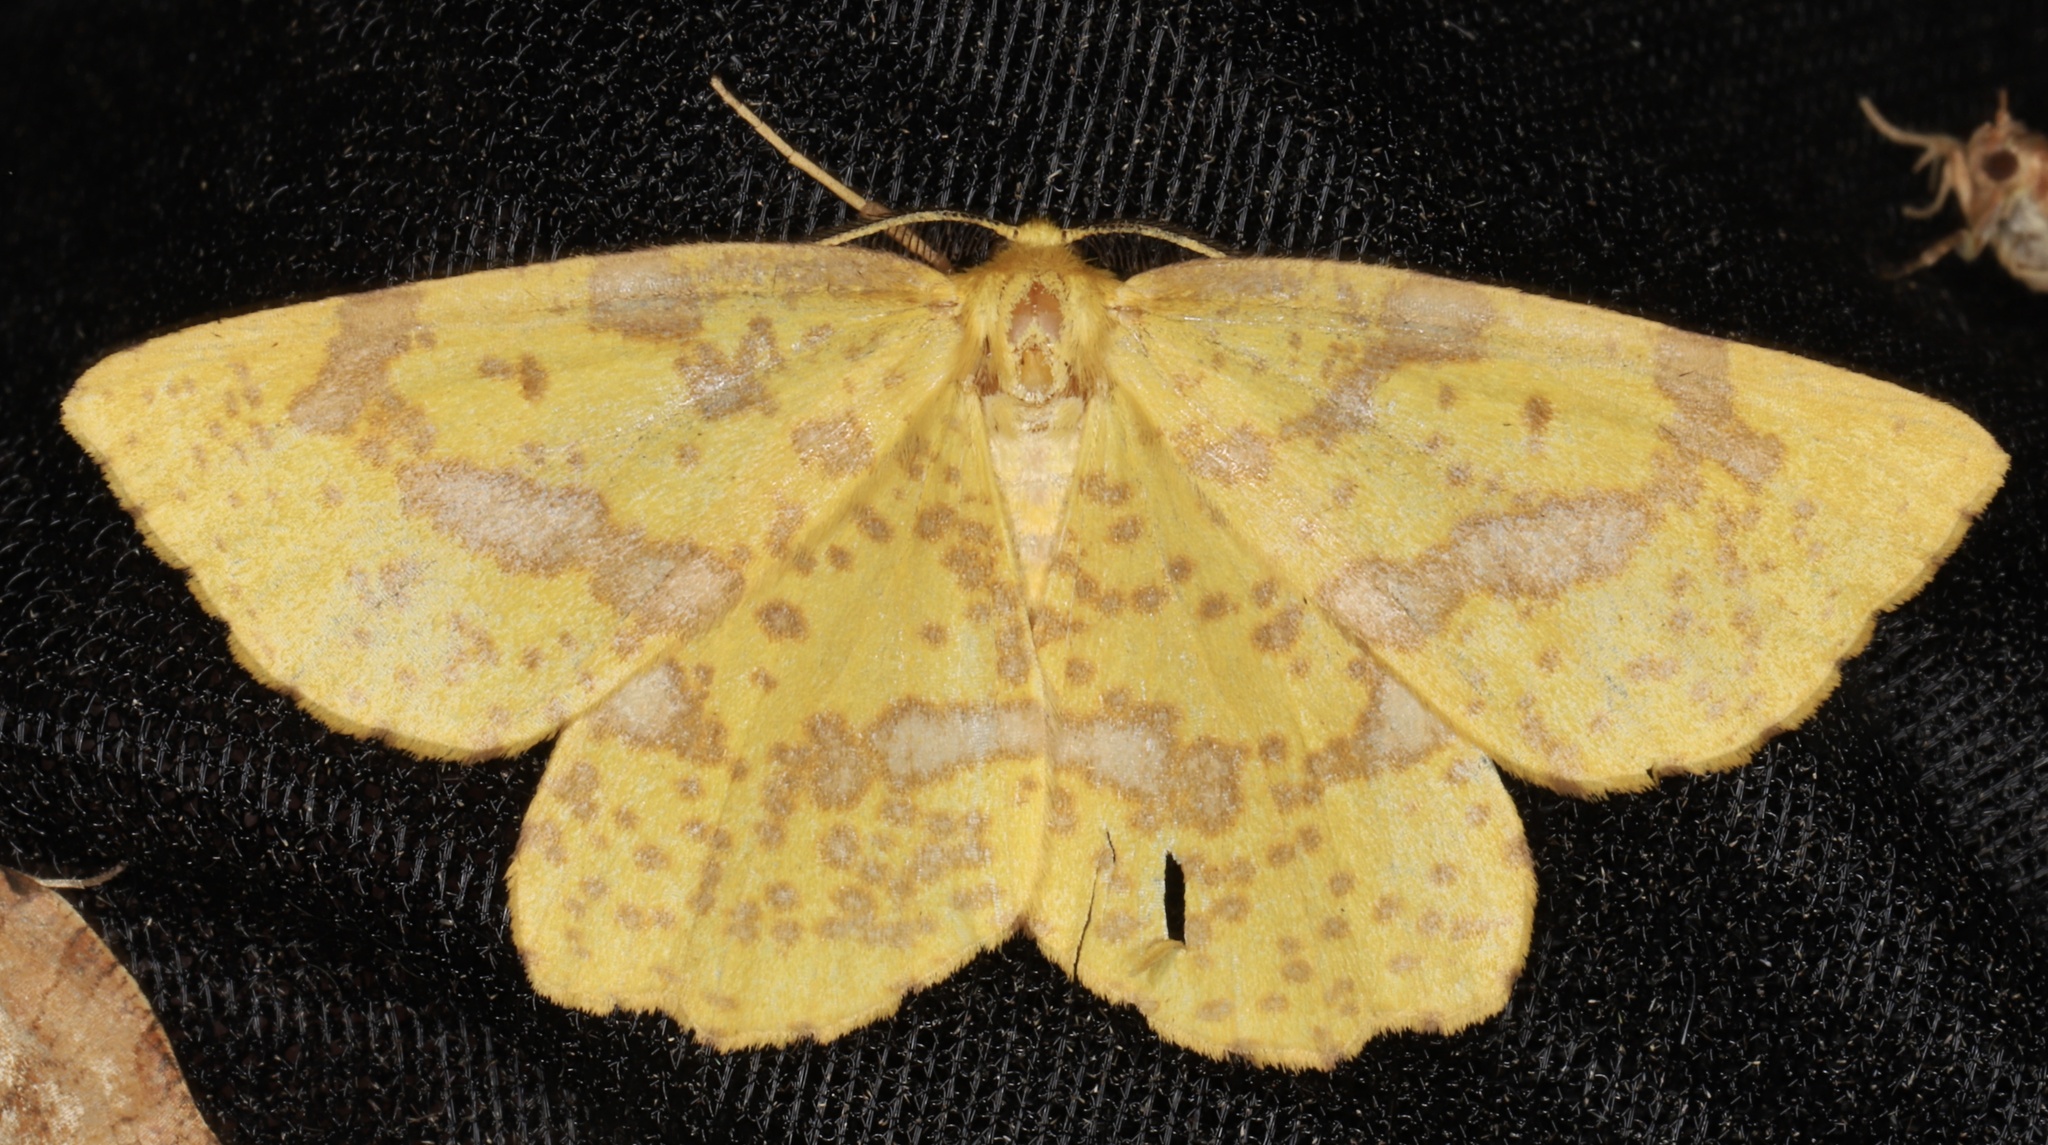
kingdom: Animalia
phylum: Arthropoda
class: Insecta
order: Lepidoptera
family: Geometridae
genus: Xanthotype
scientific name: Xanthotype
